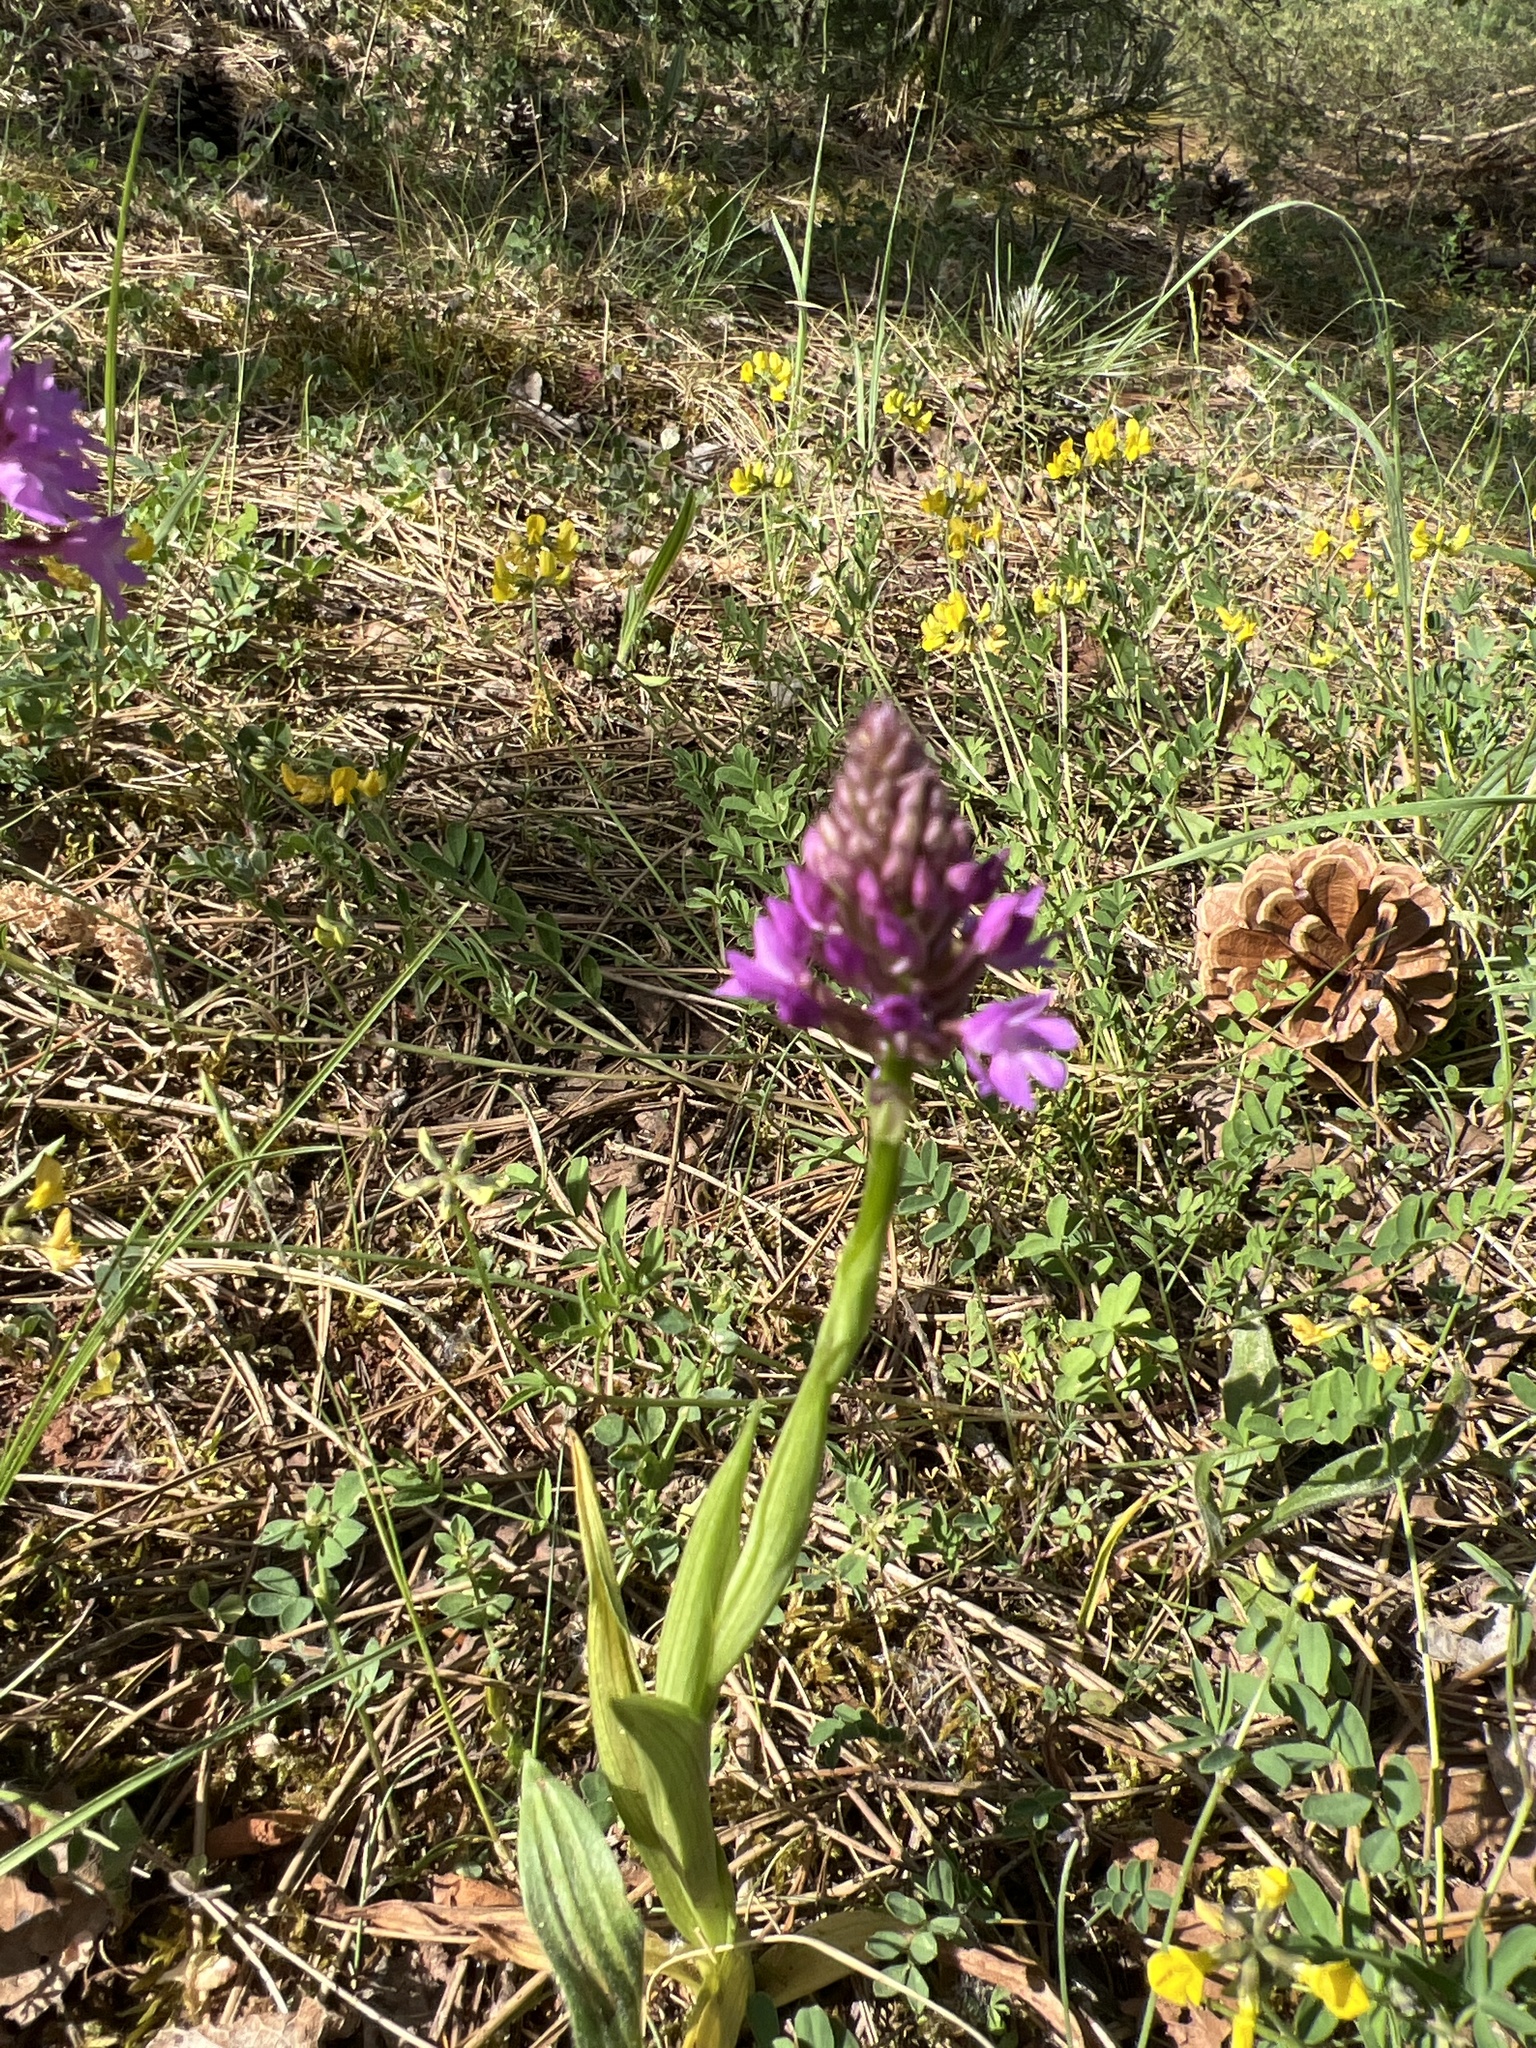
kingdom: Plantae
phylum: Tracheophyta
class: Liliopsida
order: Asparagales
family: Orchidaceae
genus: Anacamptis
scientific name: Anacamptis pyramidalis
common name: Pyramidal orchid
